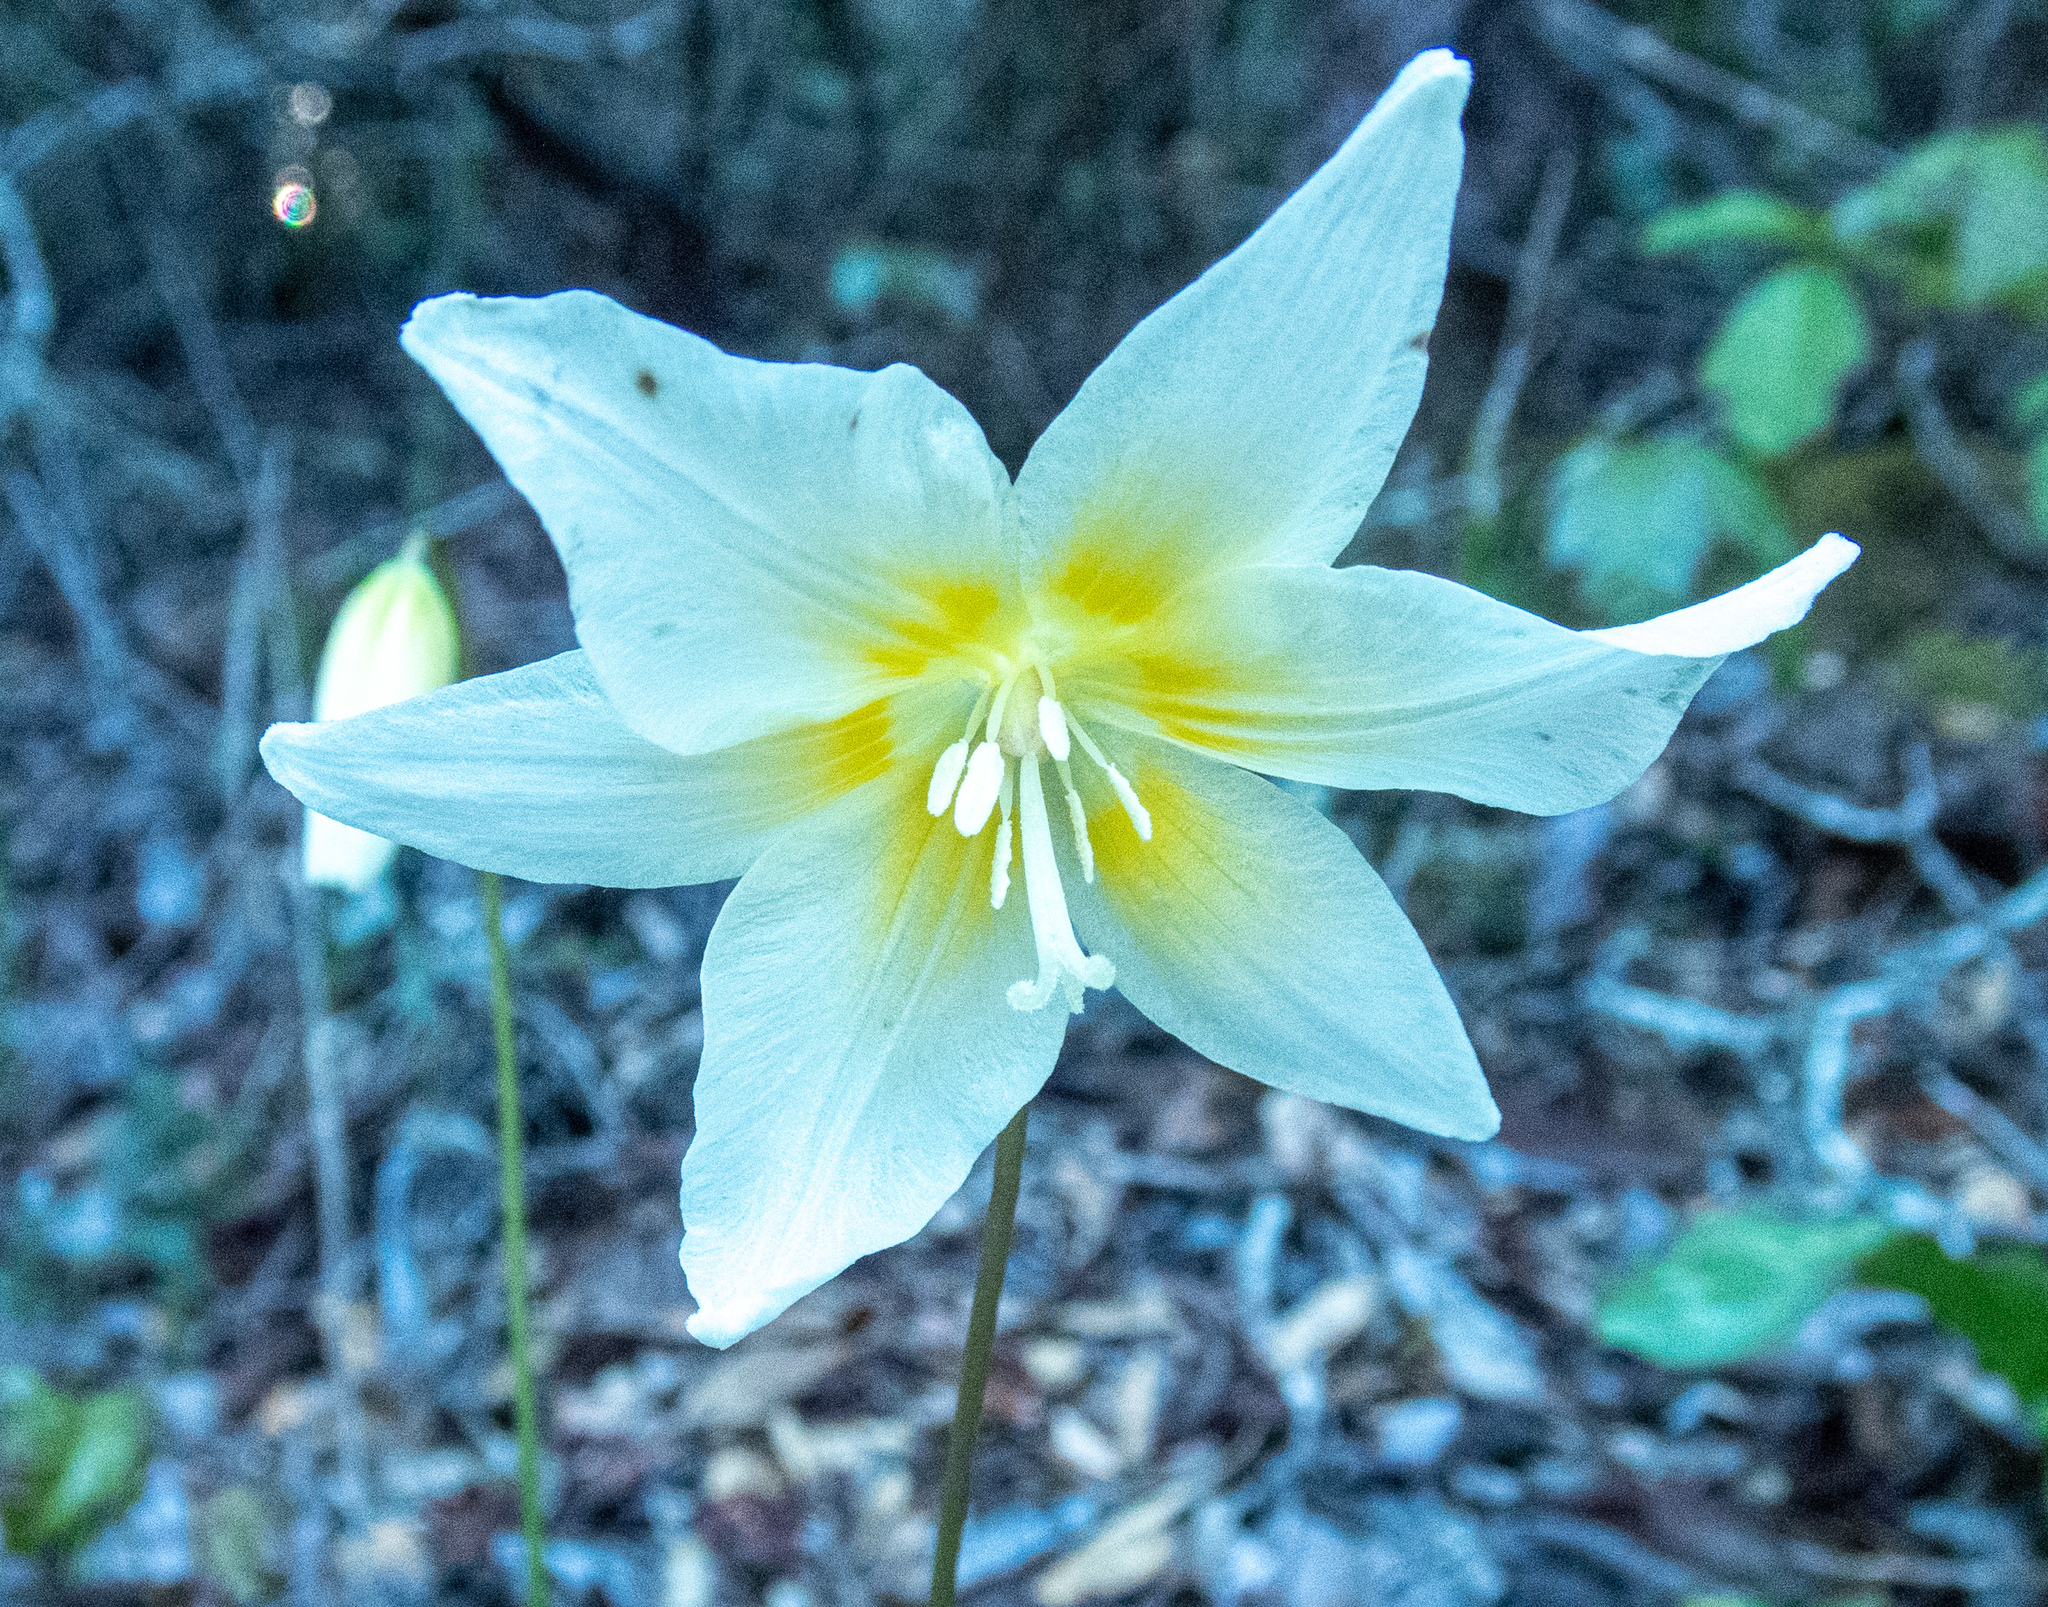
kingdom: Plantae
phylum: Tracheophyta
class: Liliopsida
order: Liliales
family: Liliaceae
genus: Erythronium
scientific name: Erythronium californicum
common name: Fawn-lily
